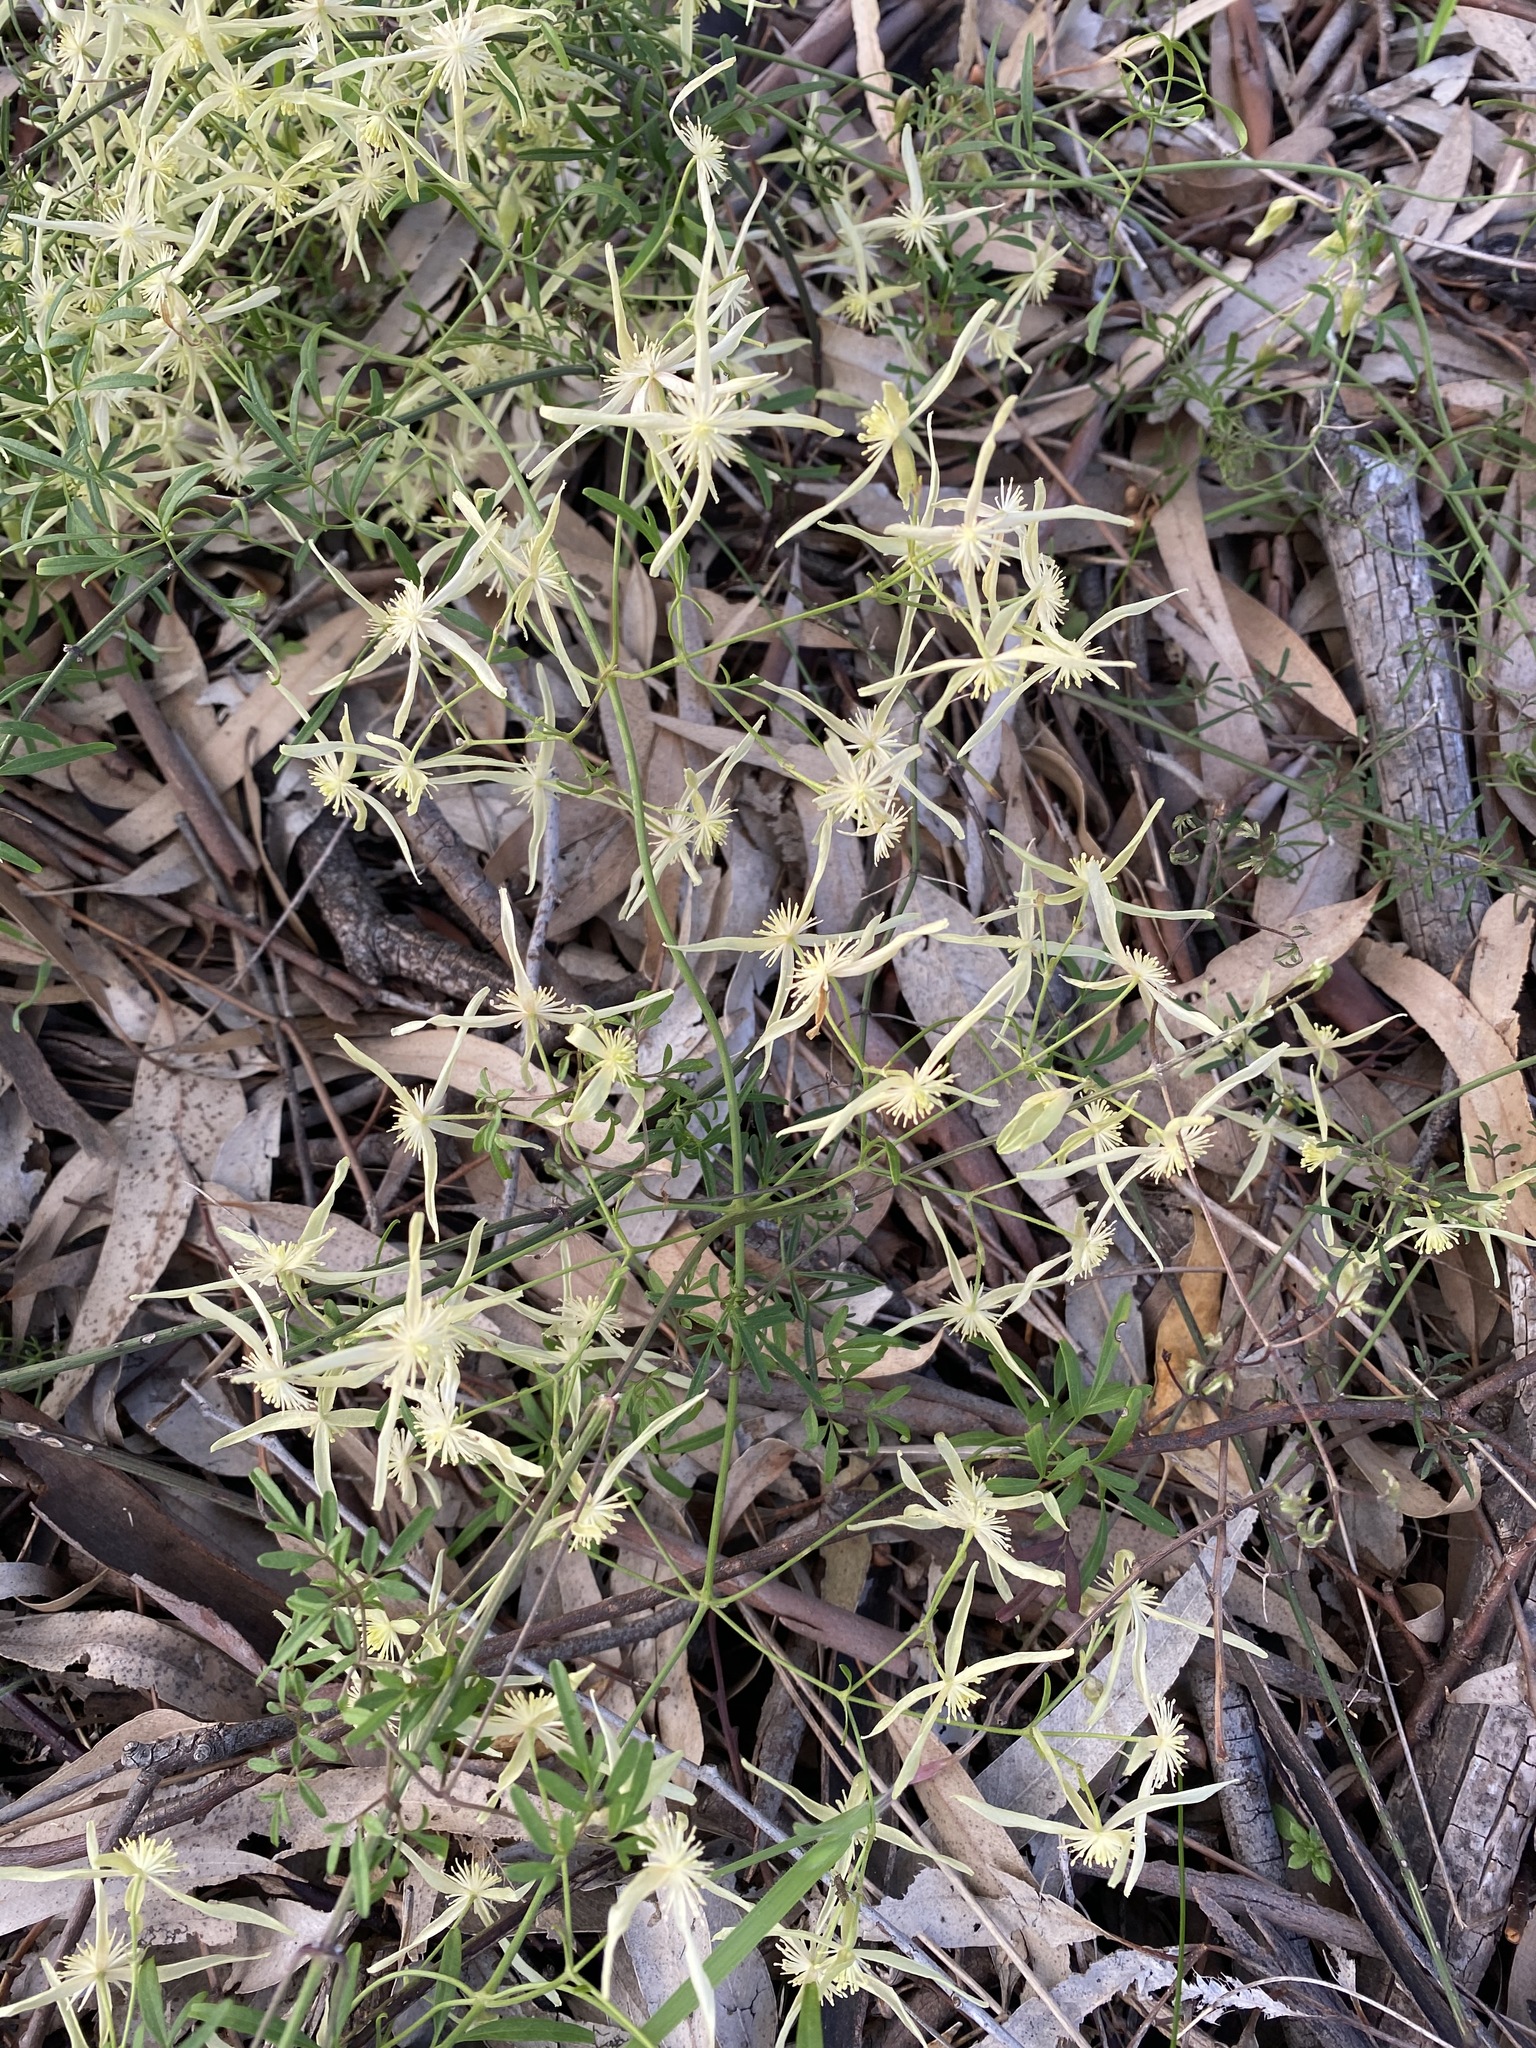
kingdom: Plantae
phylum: Tracheophyta
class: Magnoliopsida
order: Ranunculales
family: Ranunculaceae
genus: Clematis
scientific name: Clematis microphylla
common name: Headachevine
